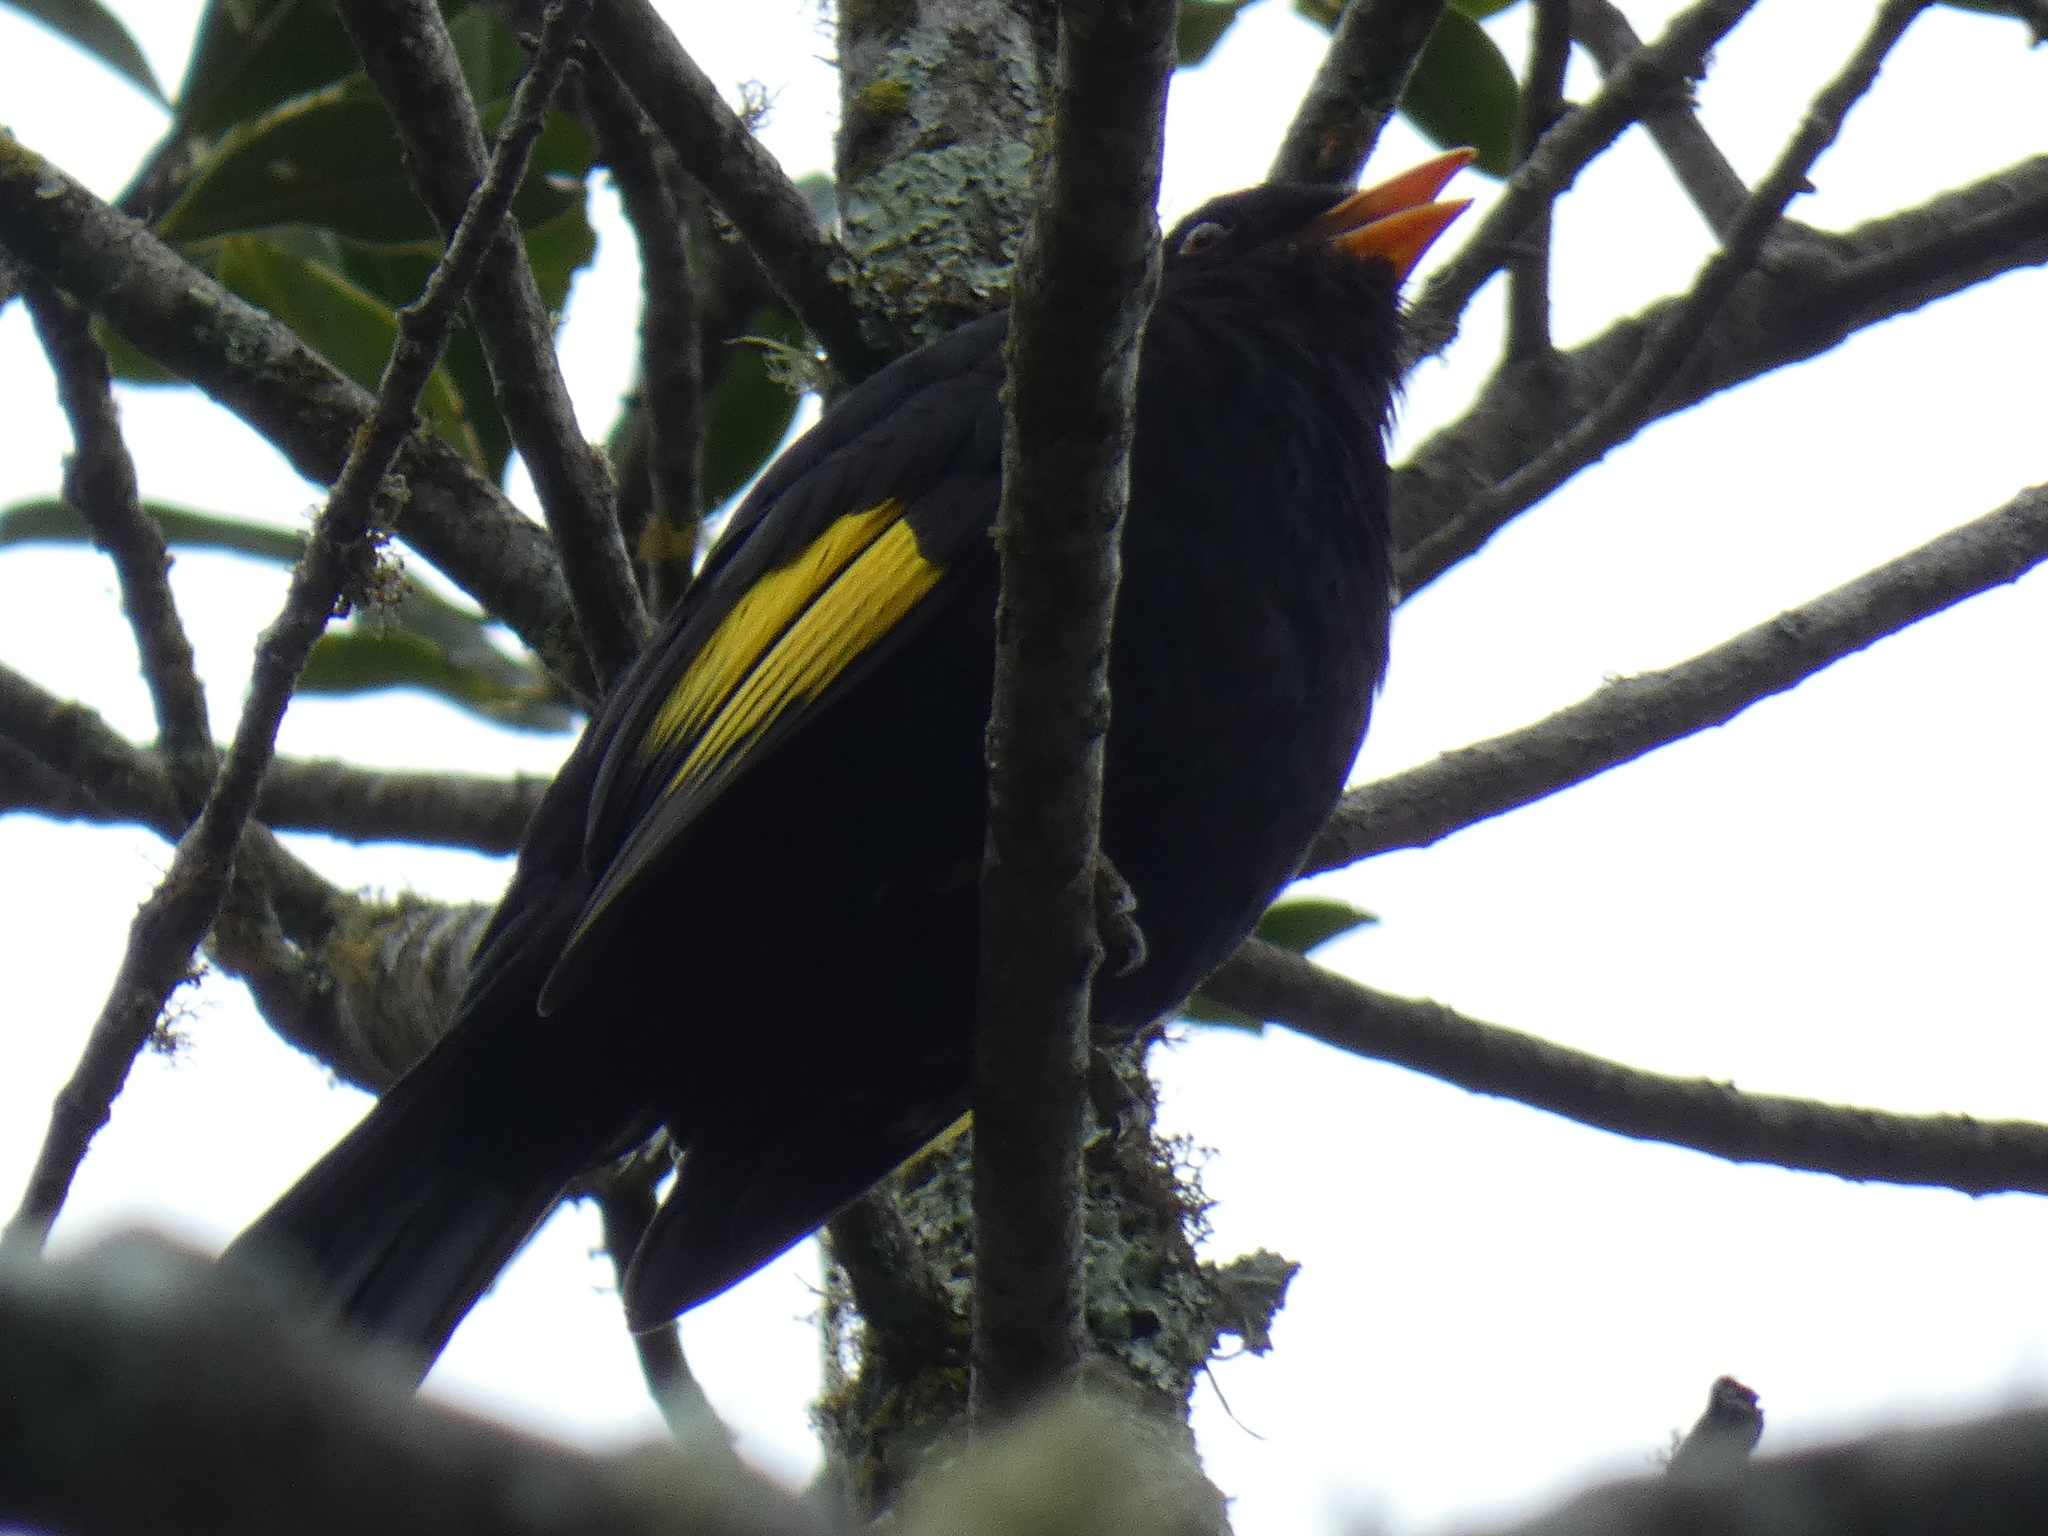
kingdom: Animalia
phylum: Chordata
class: Aves
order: Passeriformes
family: Cotingidae
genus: Lipaugus
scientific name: Lipaugus ater
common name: Black-and-gold cotinga
